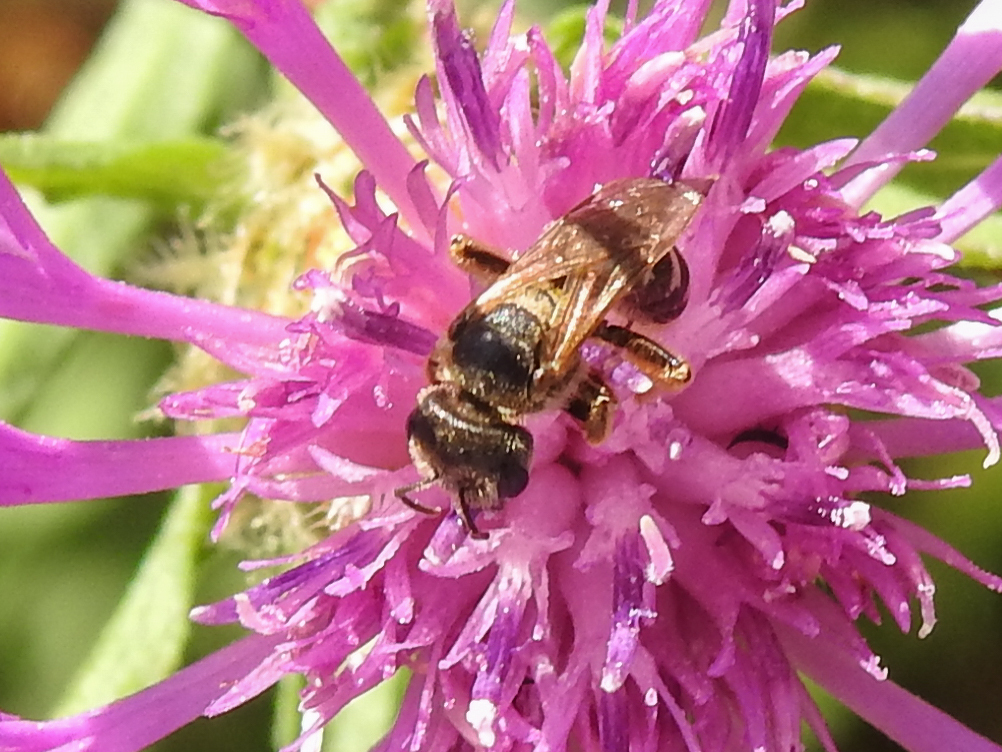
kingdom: Animalia
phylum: Arthropoda
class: Insecta
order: Hymenoptera
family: Halictidae
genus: Halictus
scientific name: Halictus ligatus
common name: Ligated furrow bee
